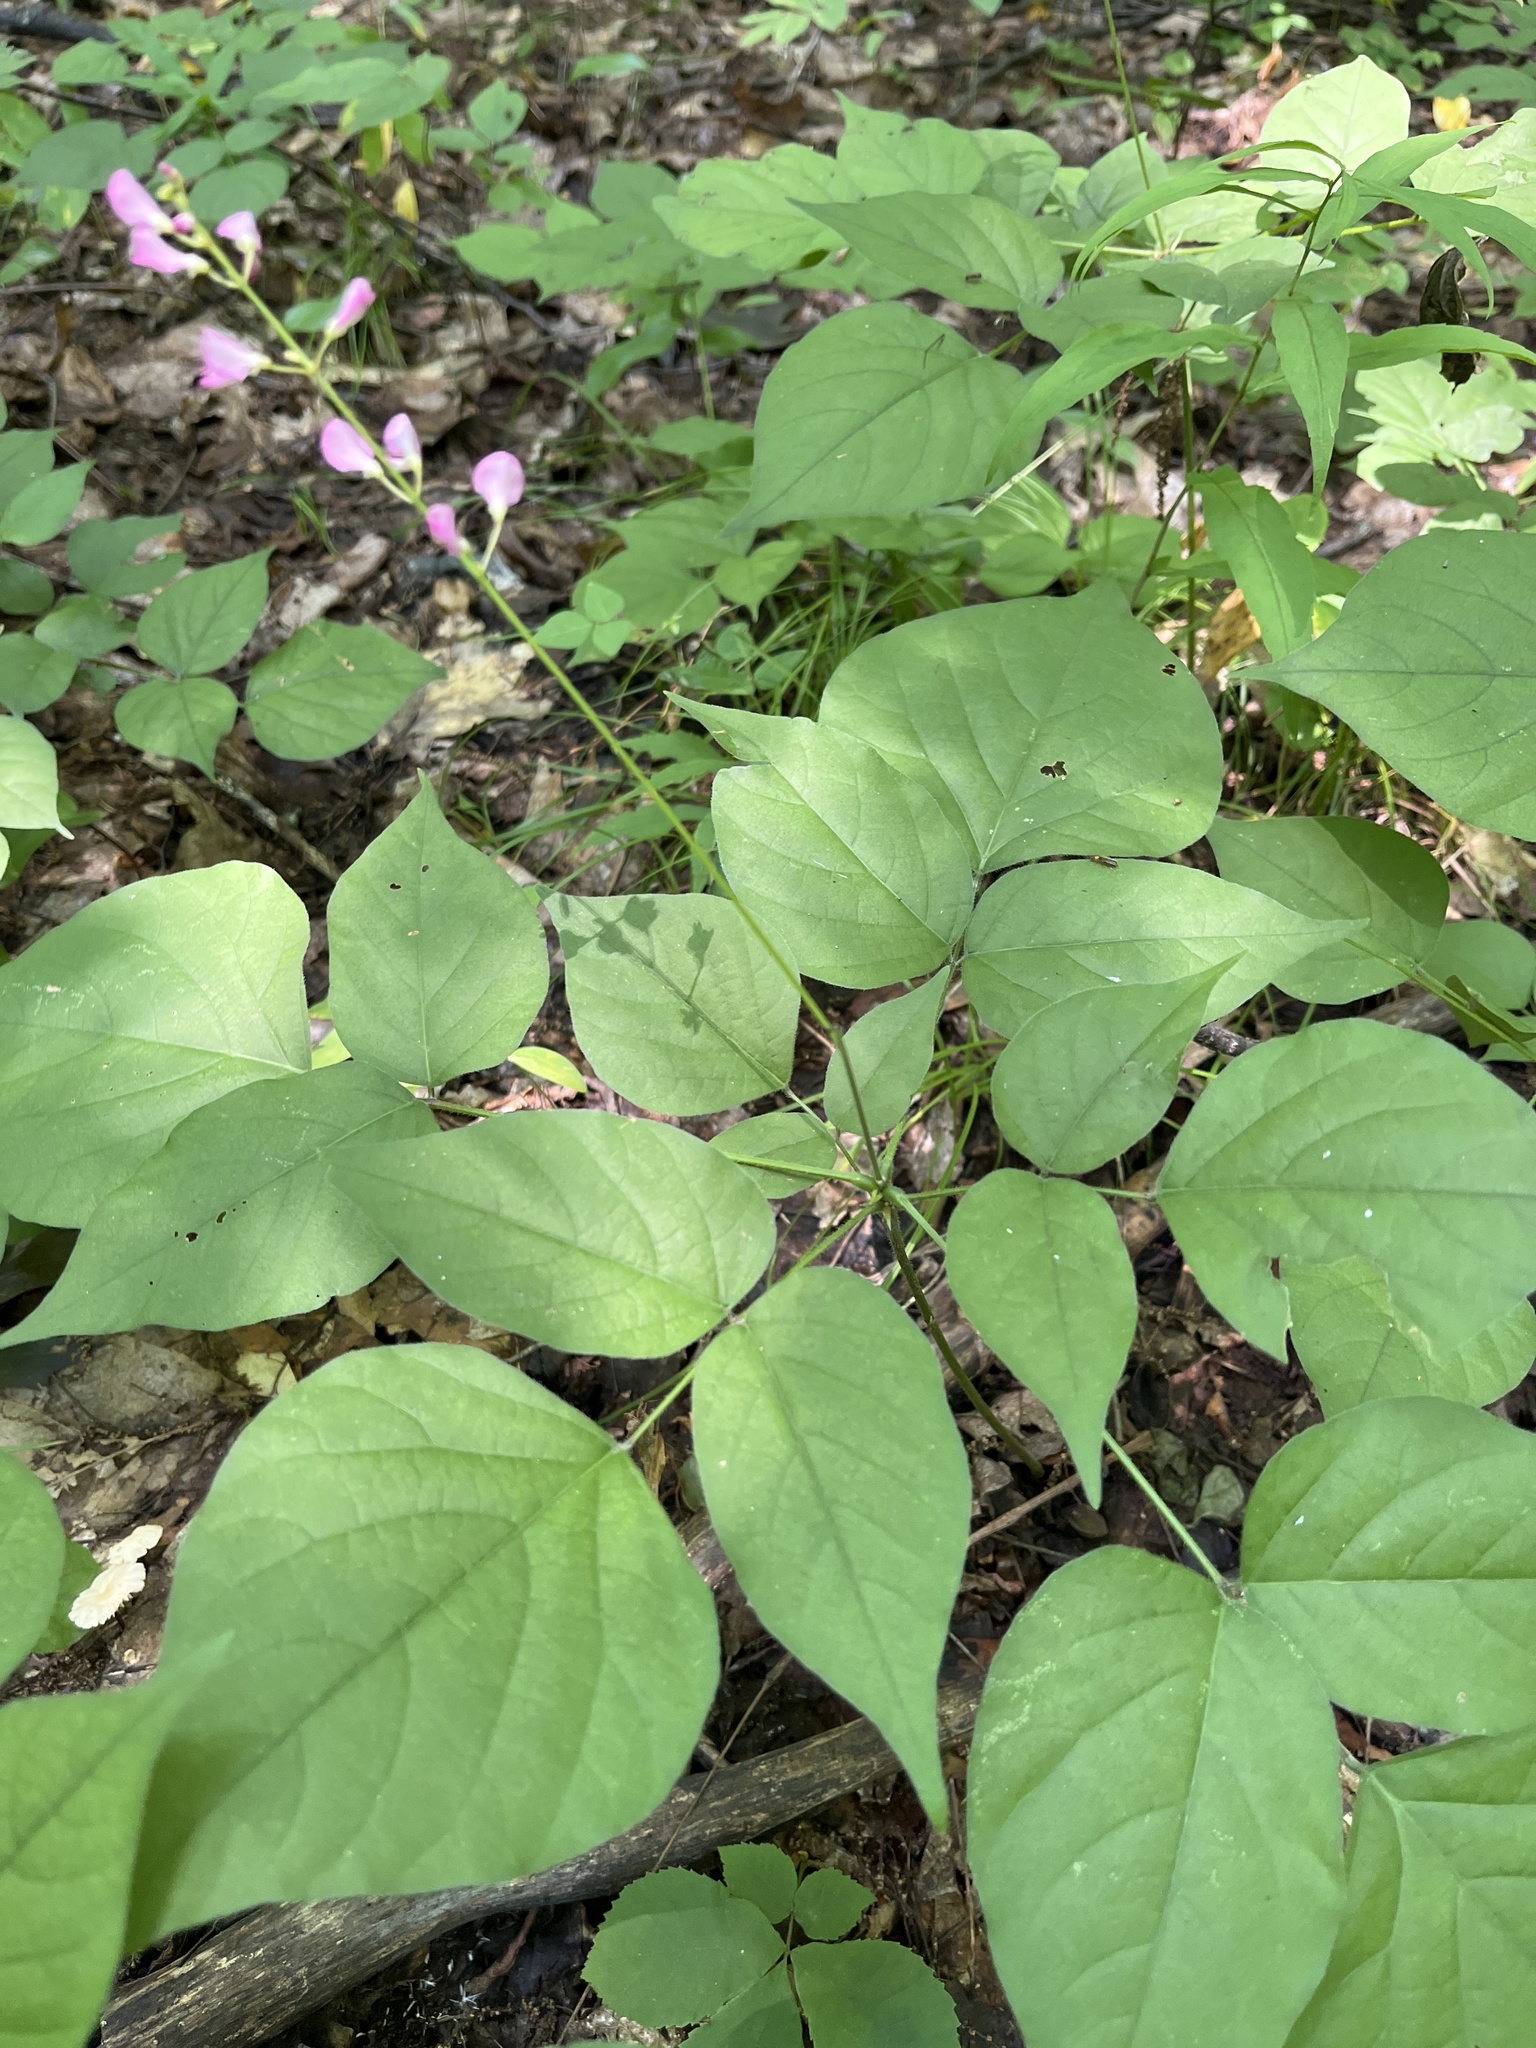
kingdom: Plantae
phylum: Tracheophyta
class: Magnoliopsida
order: Fabales
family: Fabaceae
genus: Hylodesmum
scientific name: Hylodesmum glutinosum
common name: Clustered-leaved tick-trefoil
